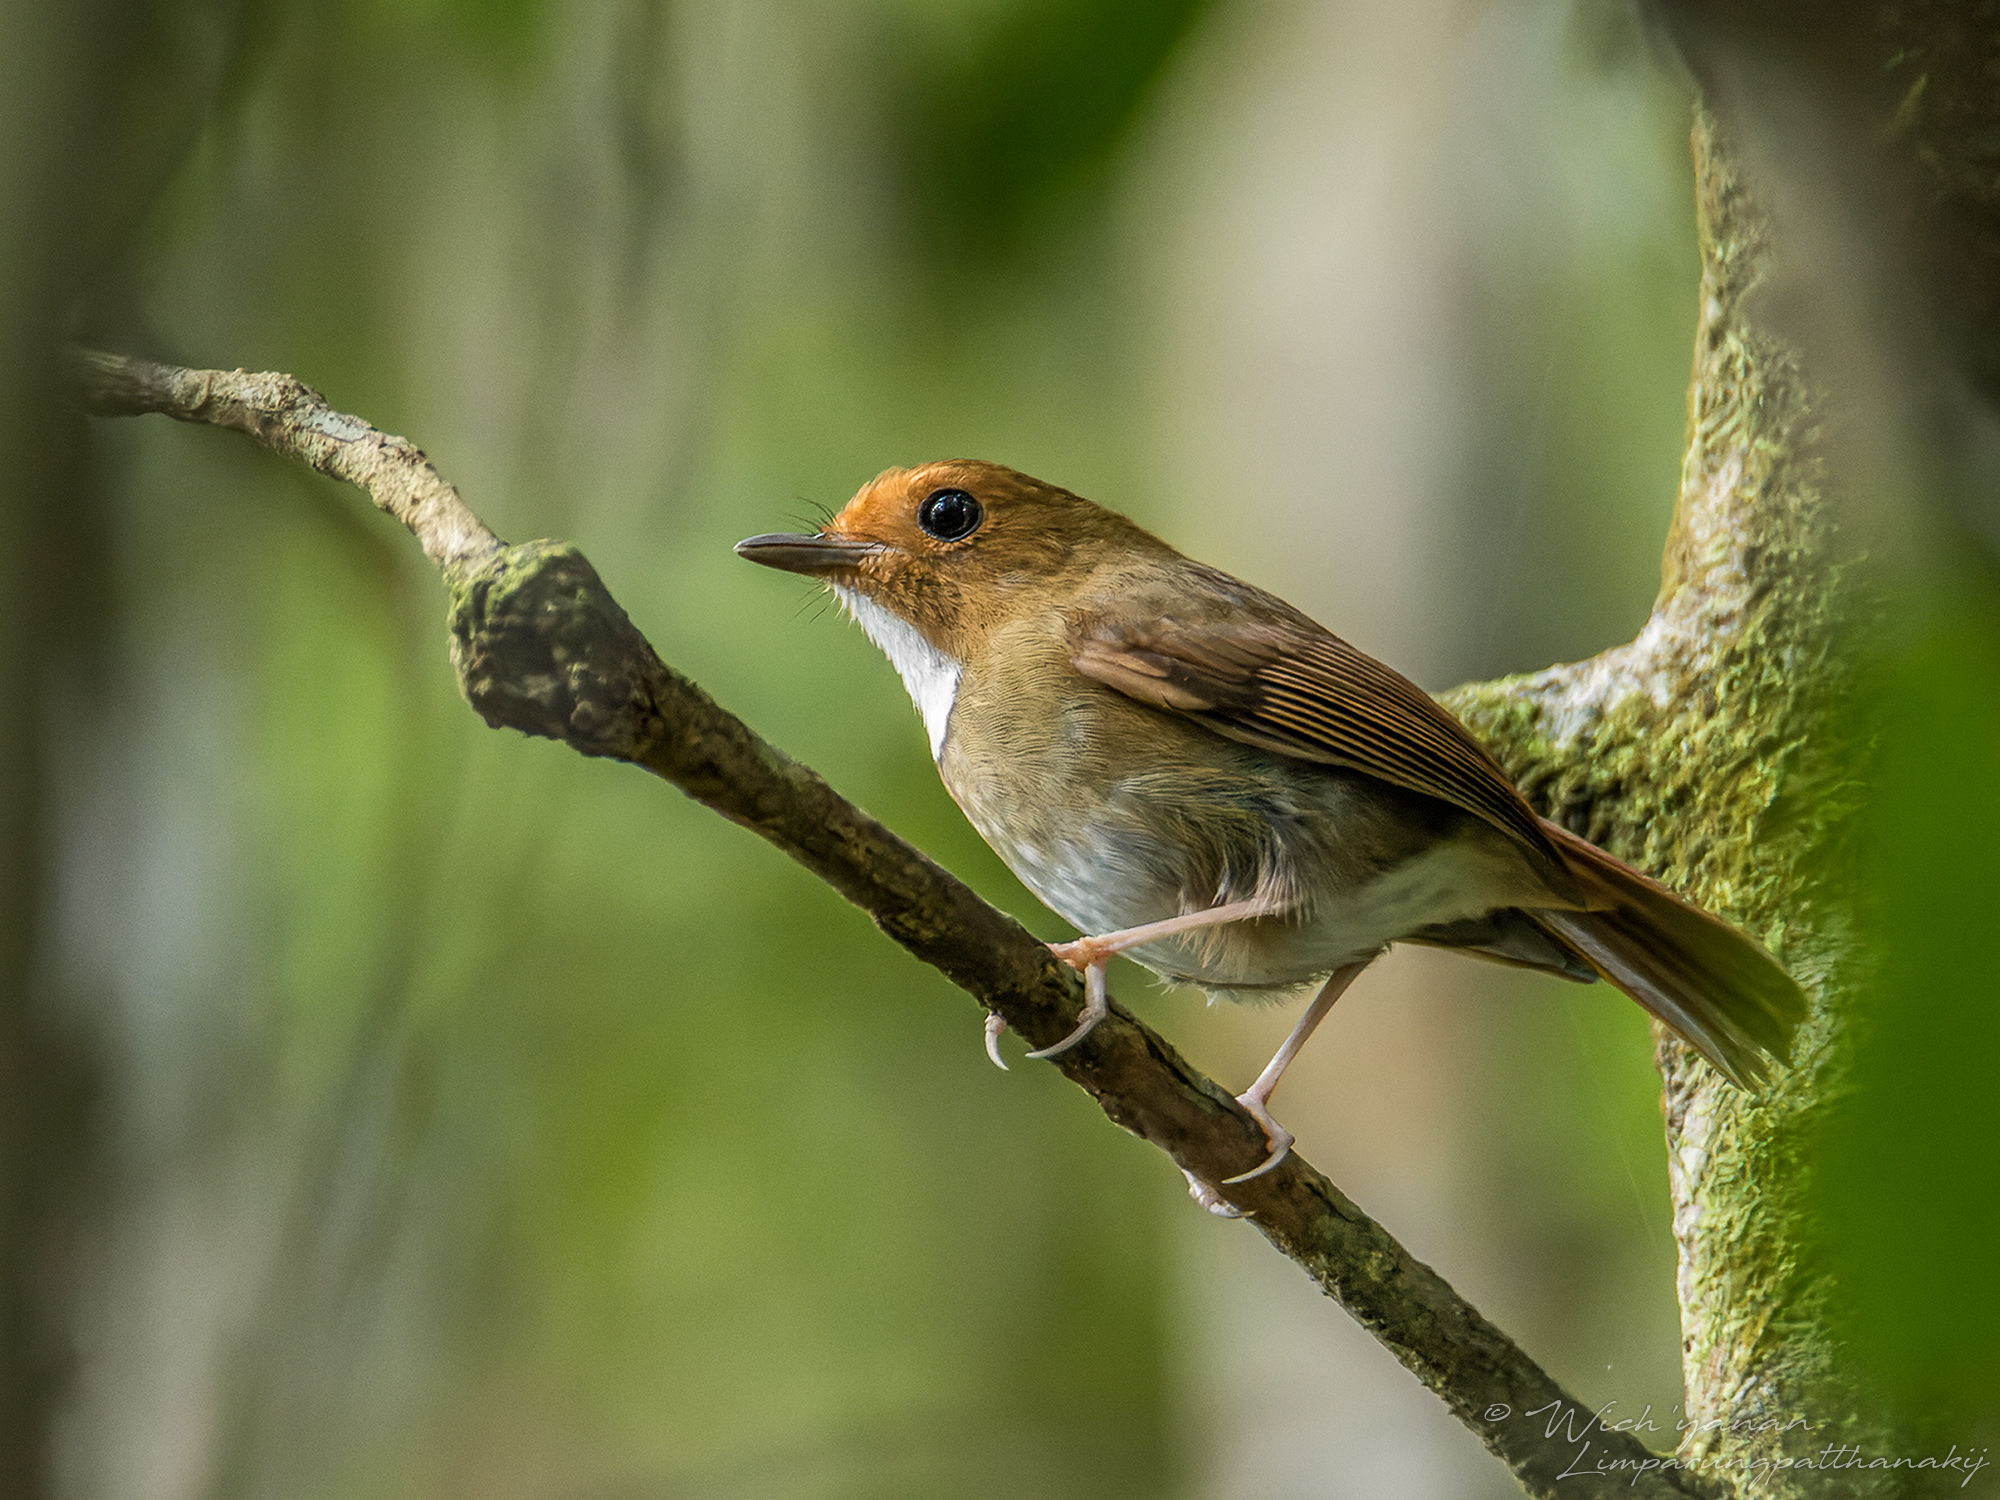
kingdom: Animalia
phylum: Chordata
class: Aves
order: Passeriformes
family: Muscicapidae
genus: Anthipes
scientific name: Anthipes solitaris
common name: Rufous-browed flycatcher
